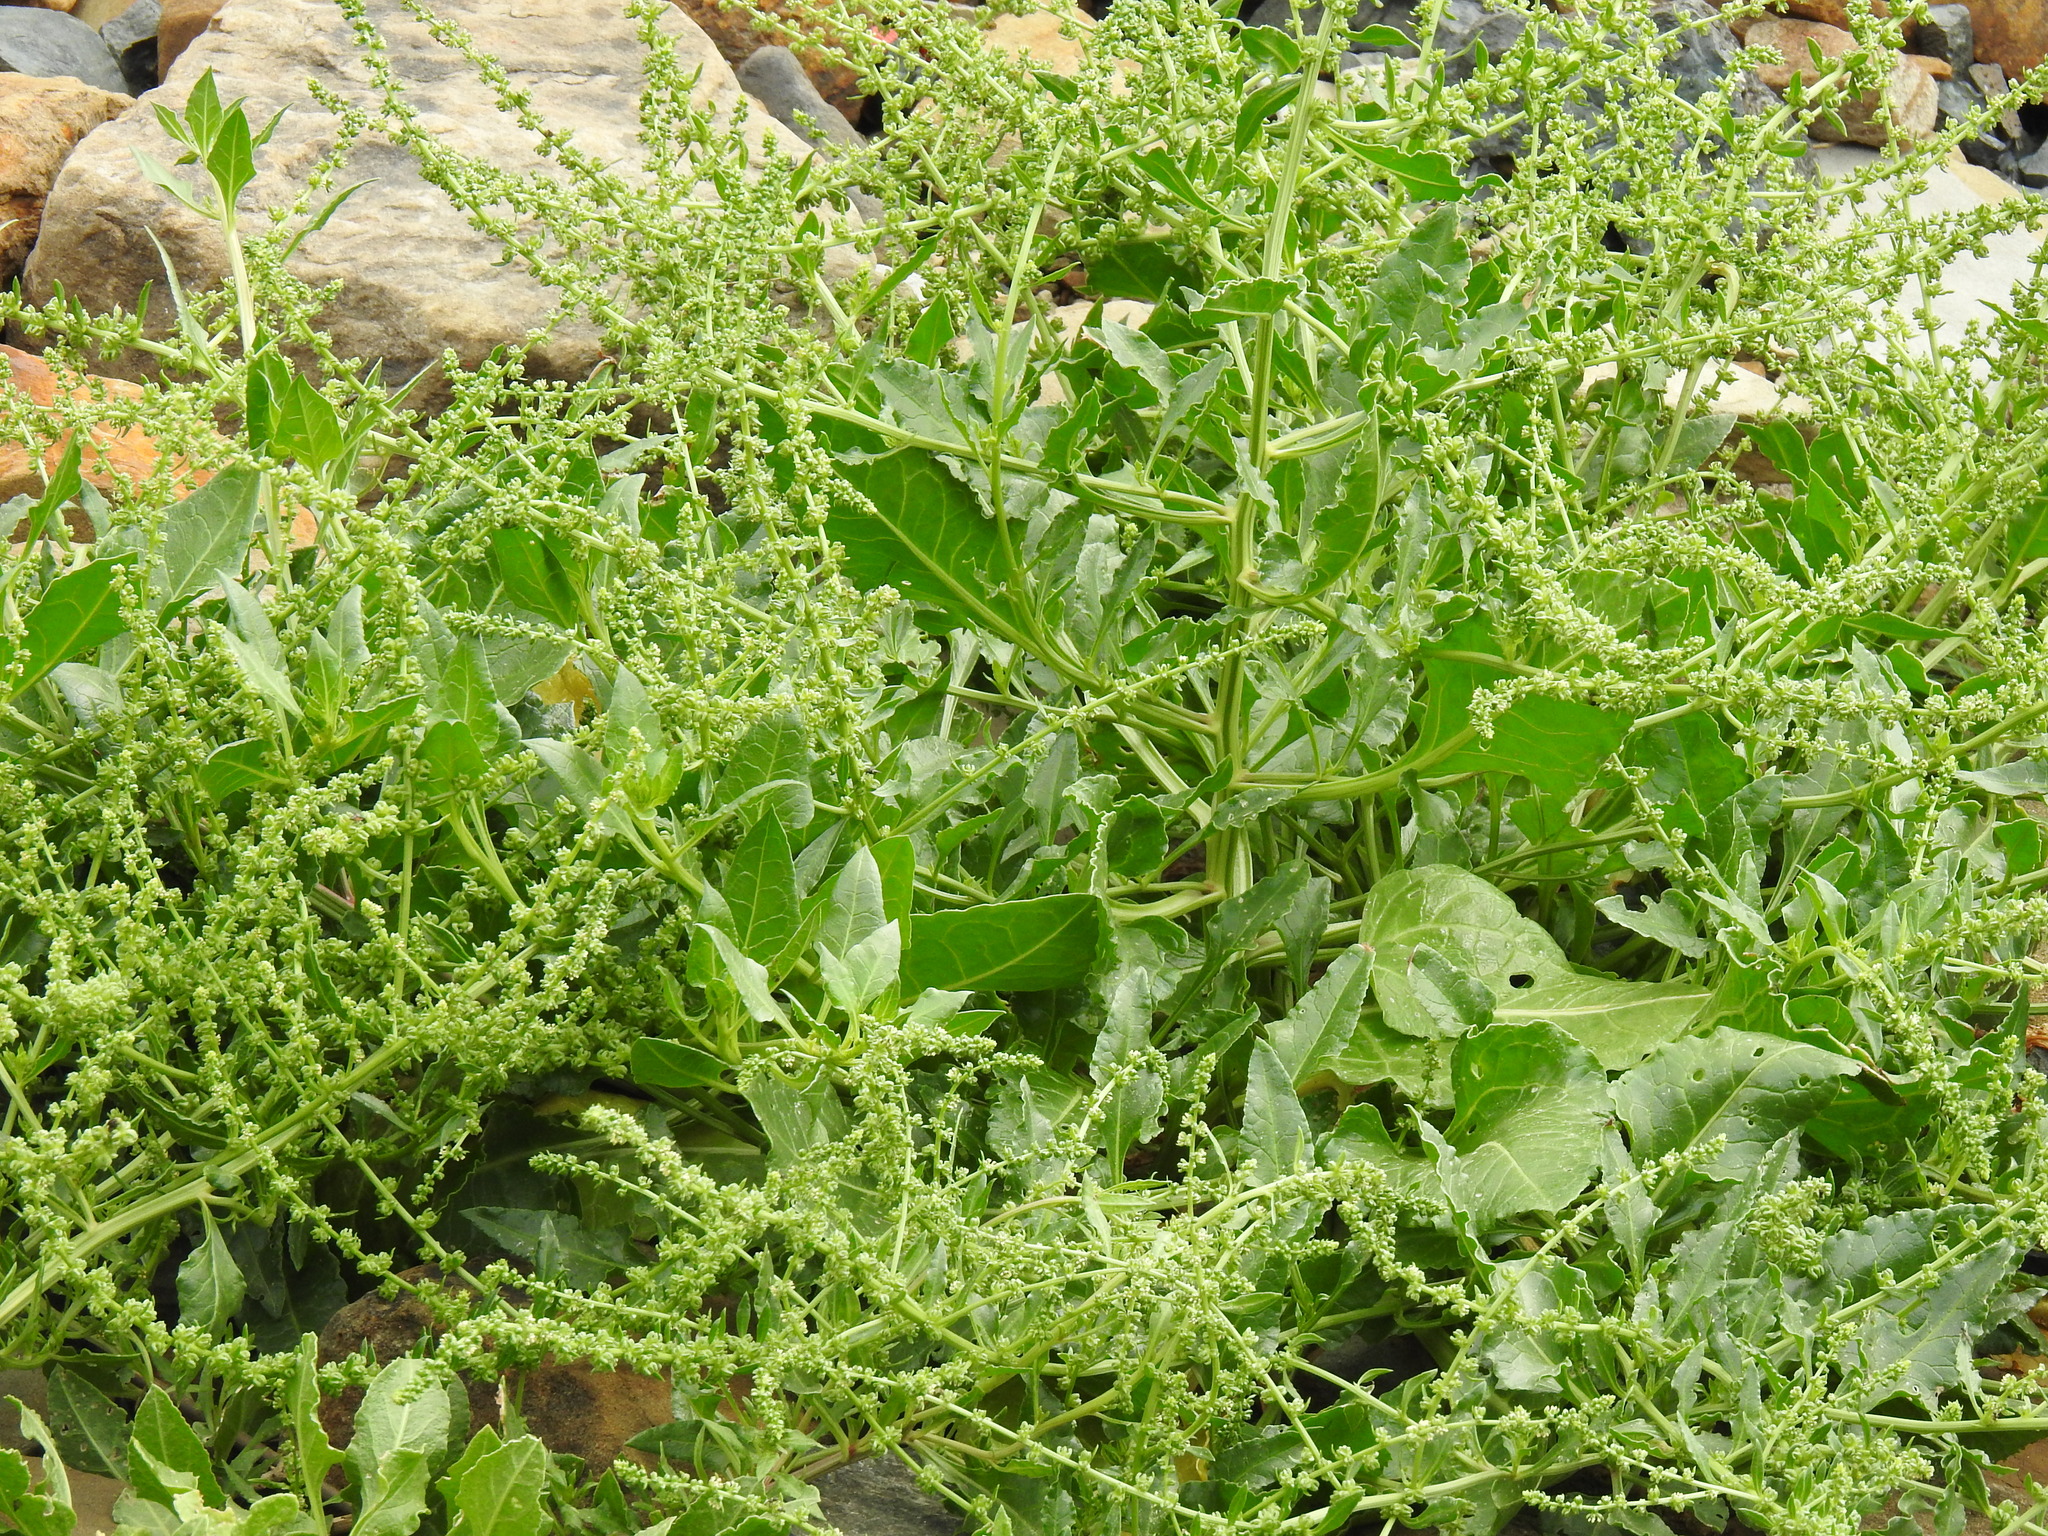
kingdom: Plantae
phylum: Tracheophyta
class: Magnoliopsida
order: Caryophyllales
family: Amaranthaceae
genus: Beta
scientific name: Beta vulgaris
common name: Beet
